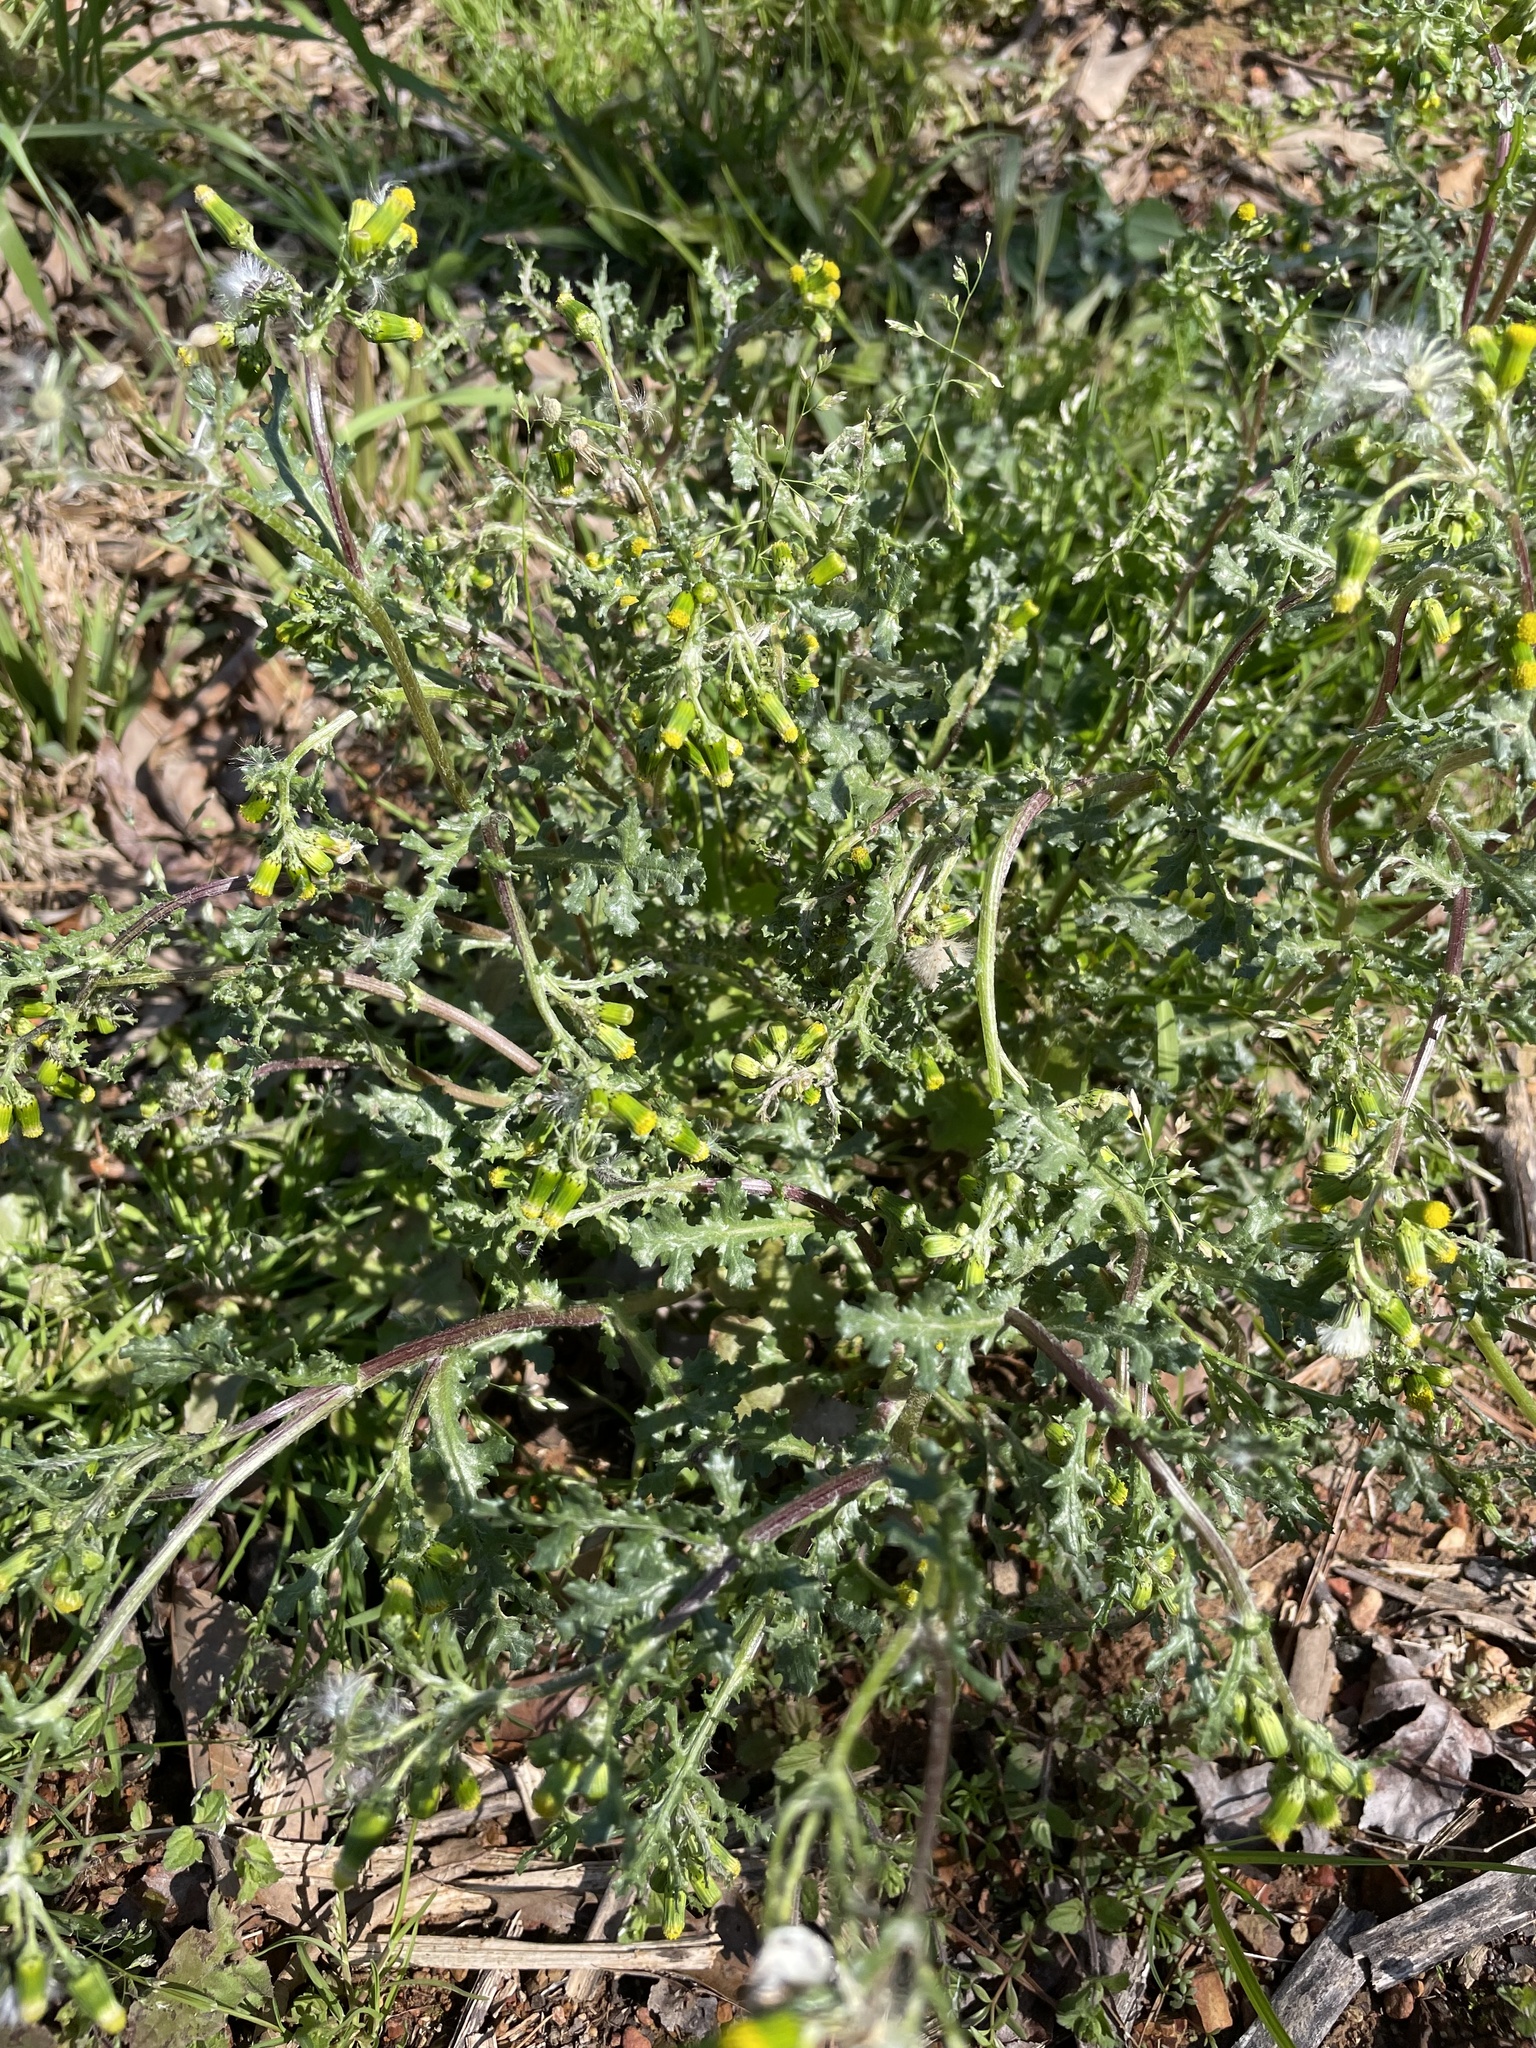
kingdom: Plantae
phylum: Tracheophyta
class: Magnoliopsida
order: Asterales
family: Asteraceae
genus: Senecio
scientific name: Senecio vulgaris
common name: Old-man-in-the-spring
